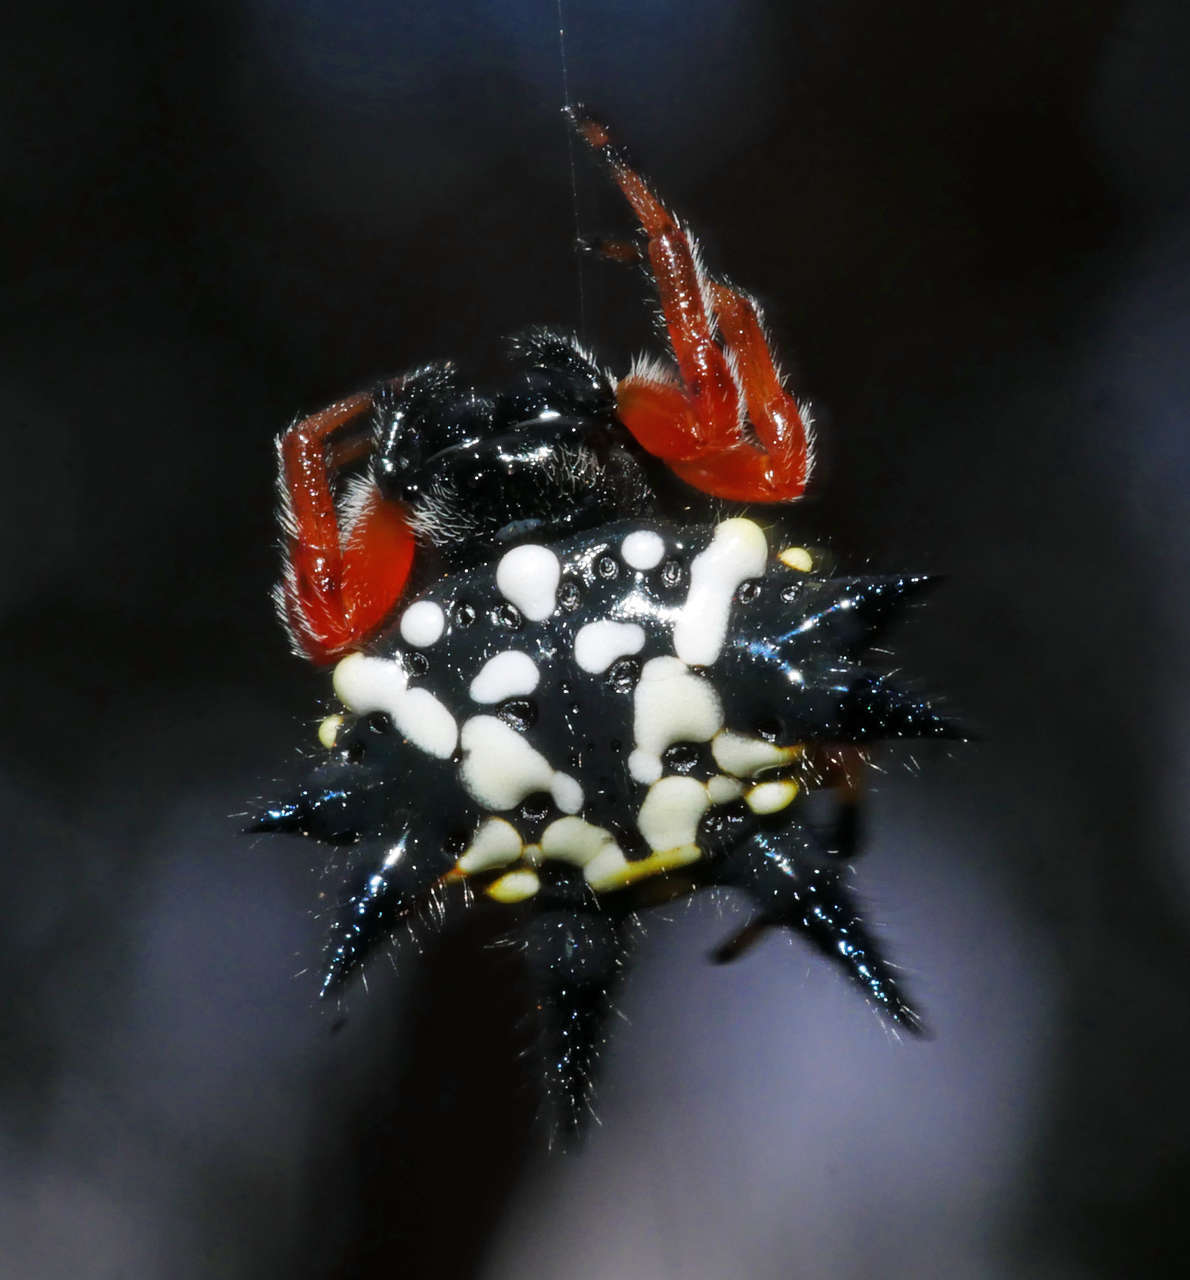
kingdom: Animalia
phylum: Arthropoda
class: Arachnida
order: Araneae
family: Araneidae
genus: Austracantha
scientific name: Austracantha minax
